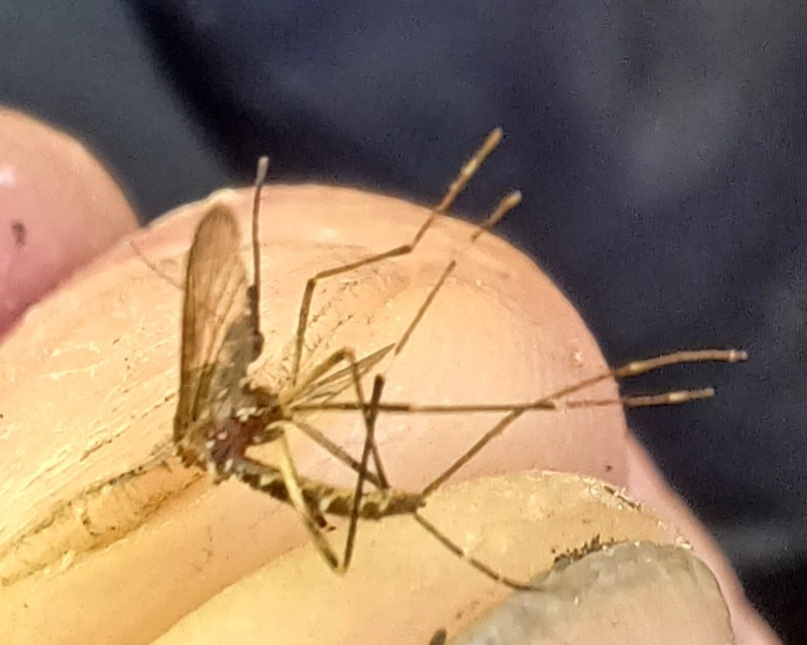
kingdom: Animalia
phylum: Arthropoda
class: Insecta
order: Diptera
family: Culicidae
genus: Aedes
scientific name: Aedes camptorhynchus
